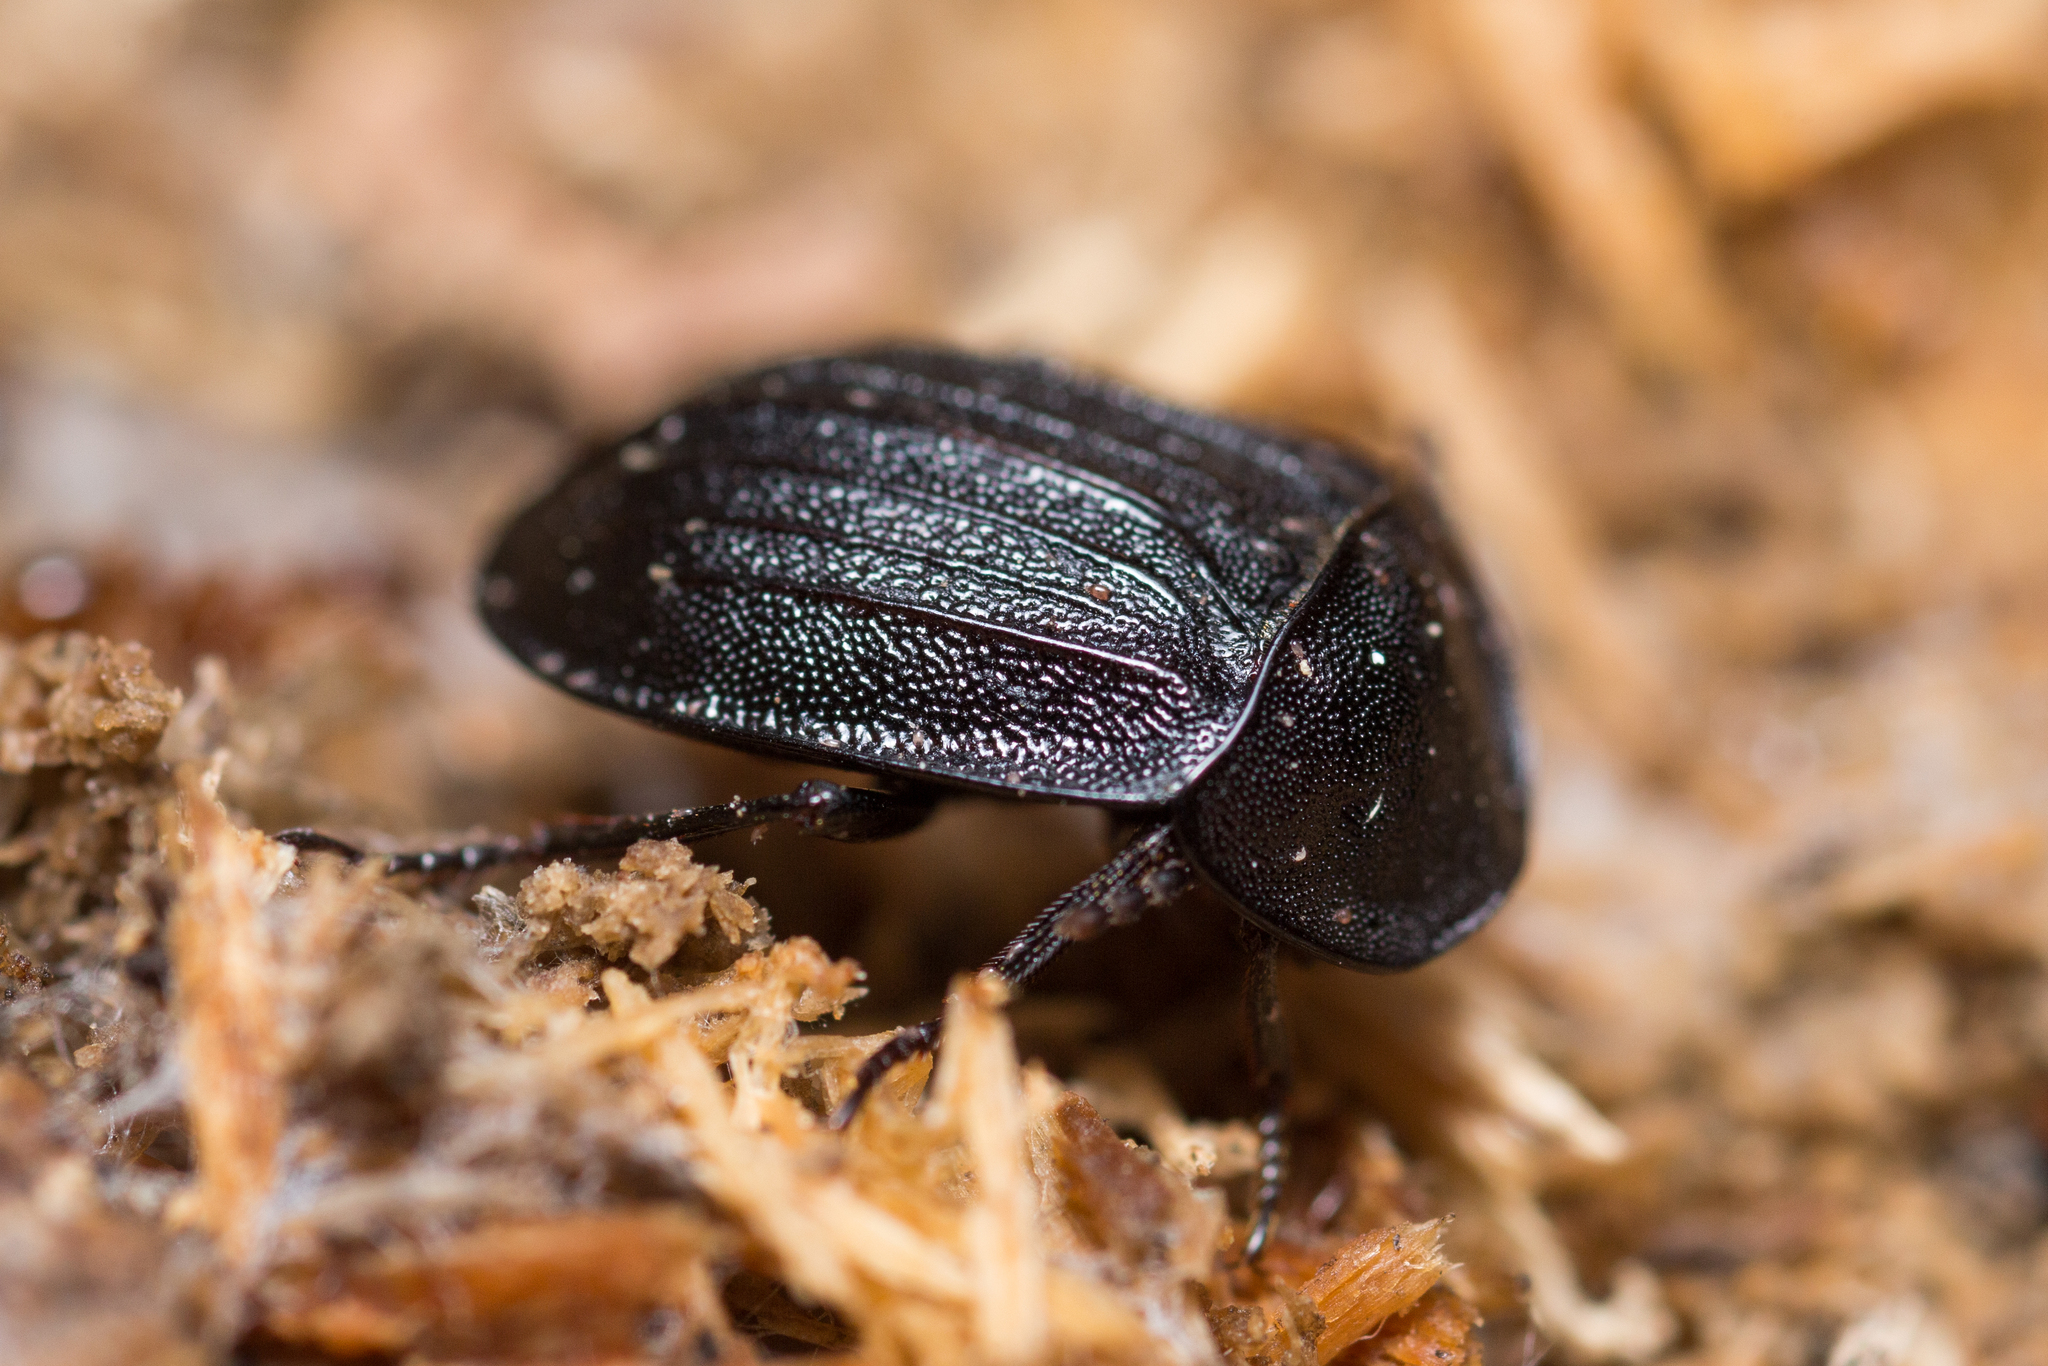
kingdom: Animalia
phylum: Arthropoda
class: Insecta
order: Coleoptera
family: Staphylinidae
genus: Silpha
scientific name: Silpha atrata
